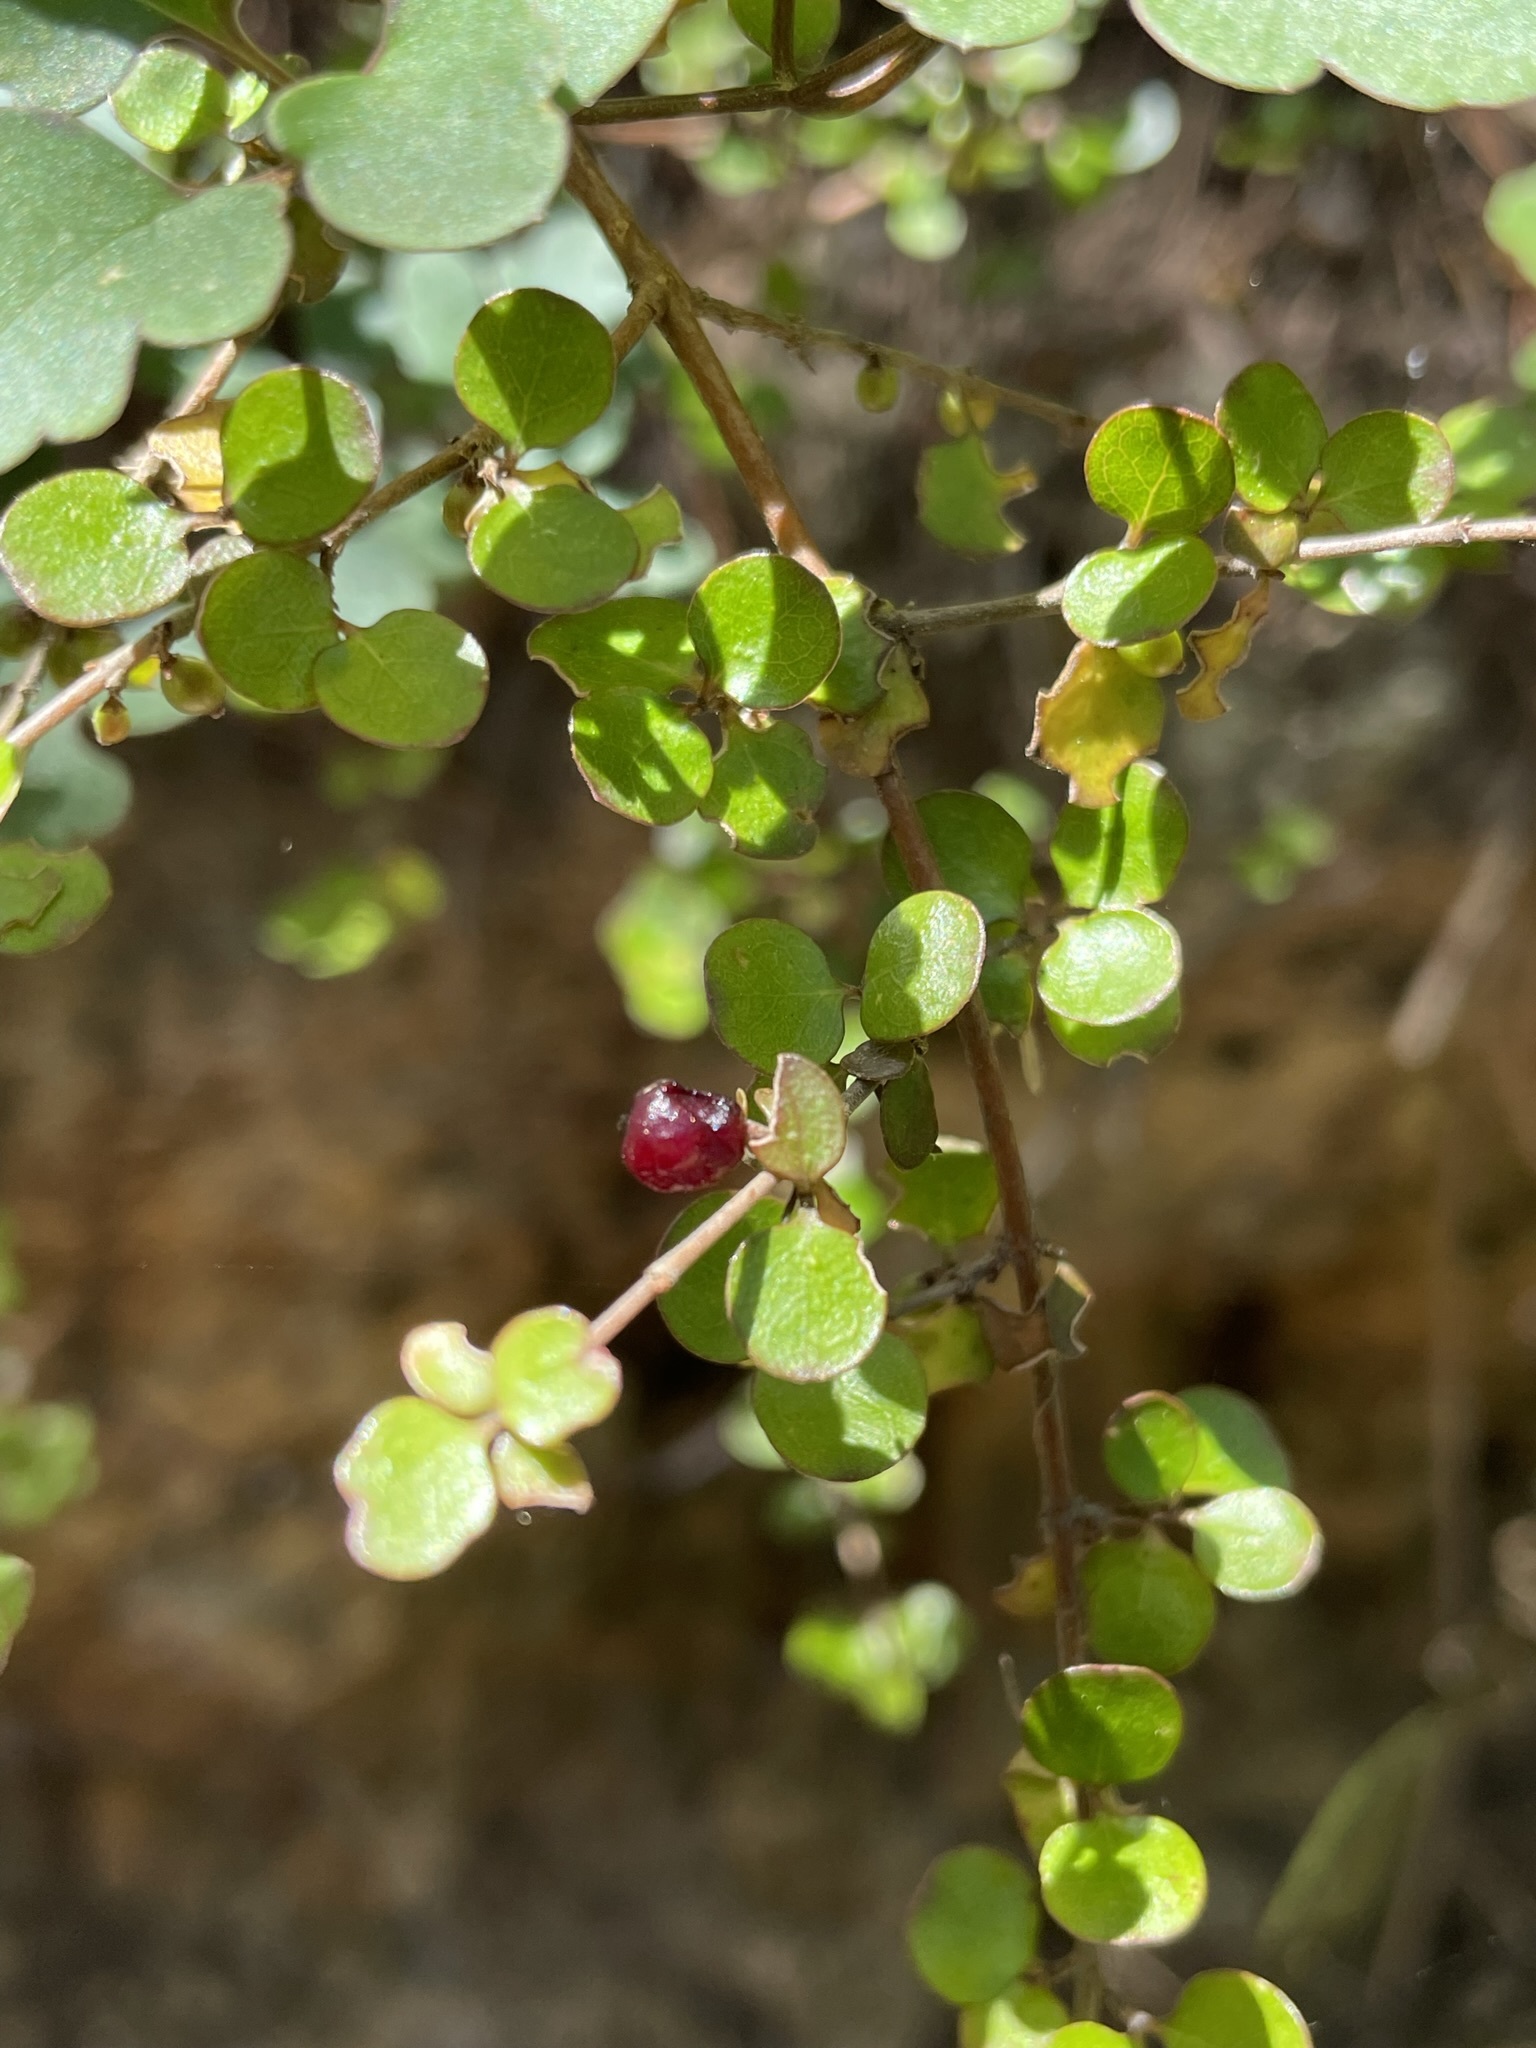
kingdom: Plantae
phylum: Tracheophyta
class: Magnoliopsida
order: Gentianales
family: Rubiaceae
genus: Coprosma
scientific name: Coprosma rhamnoides
